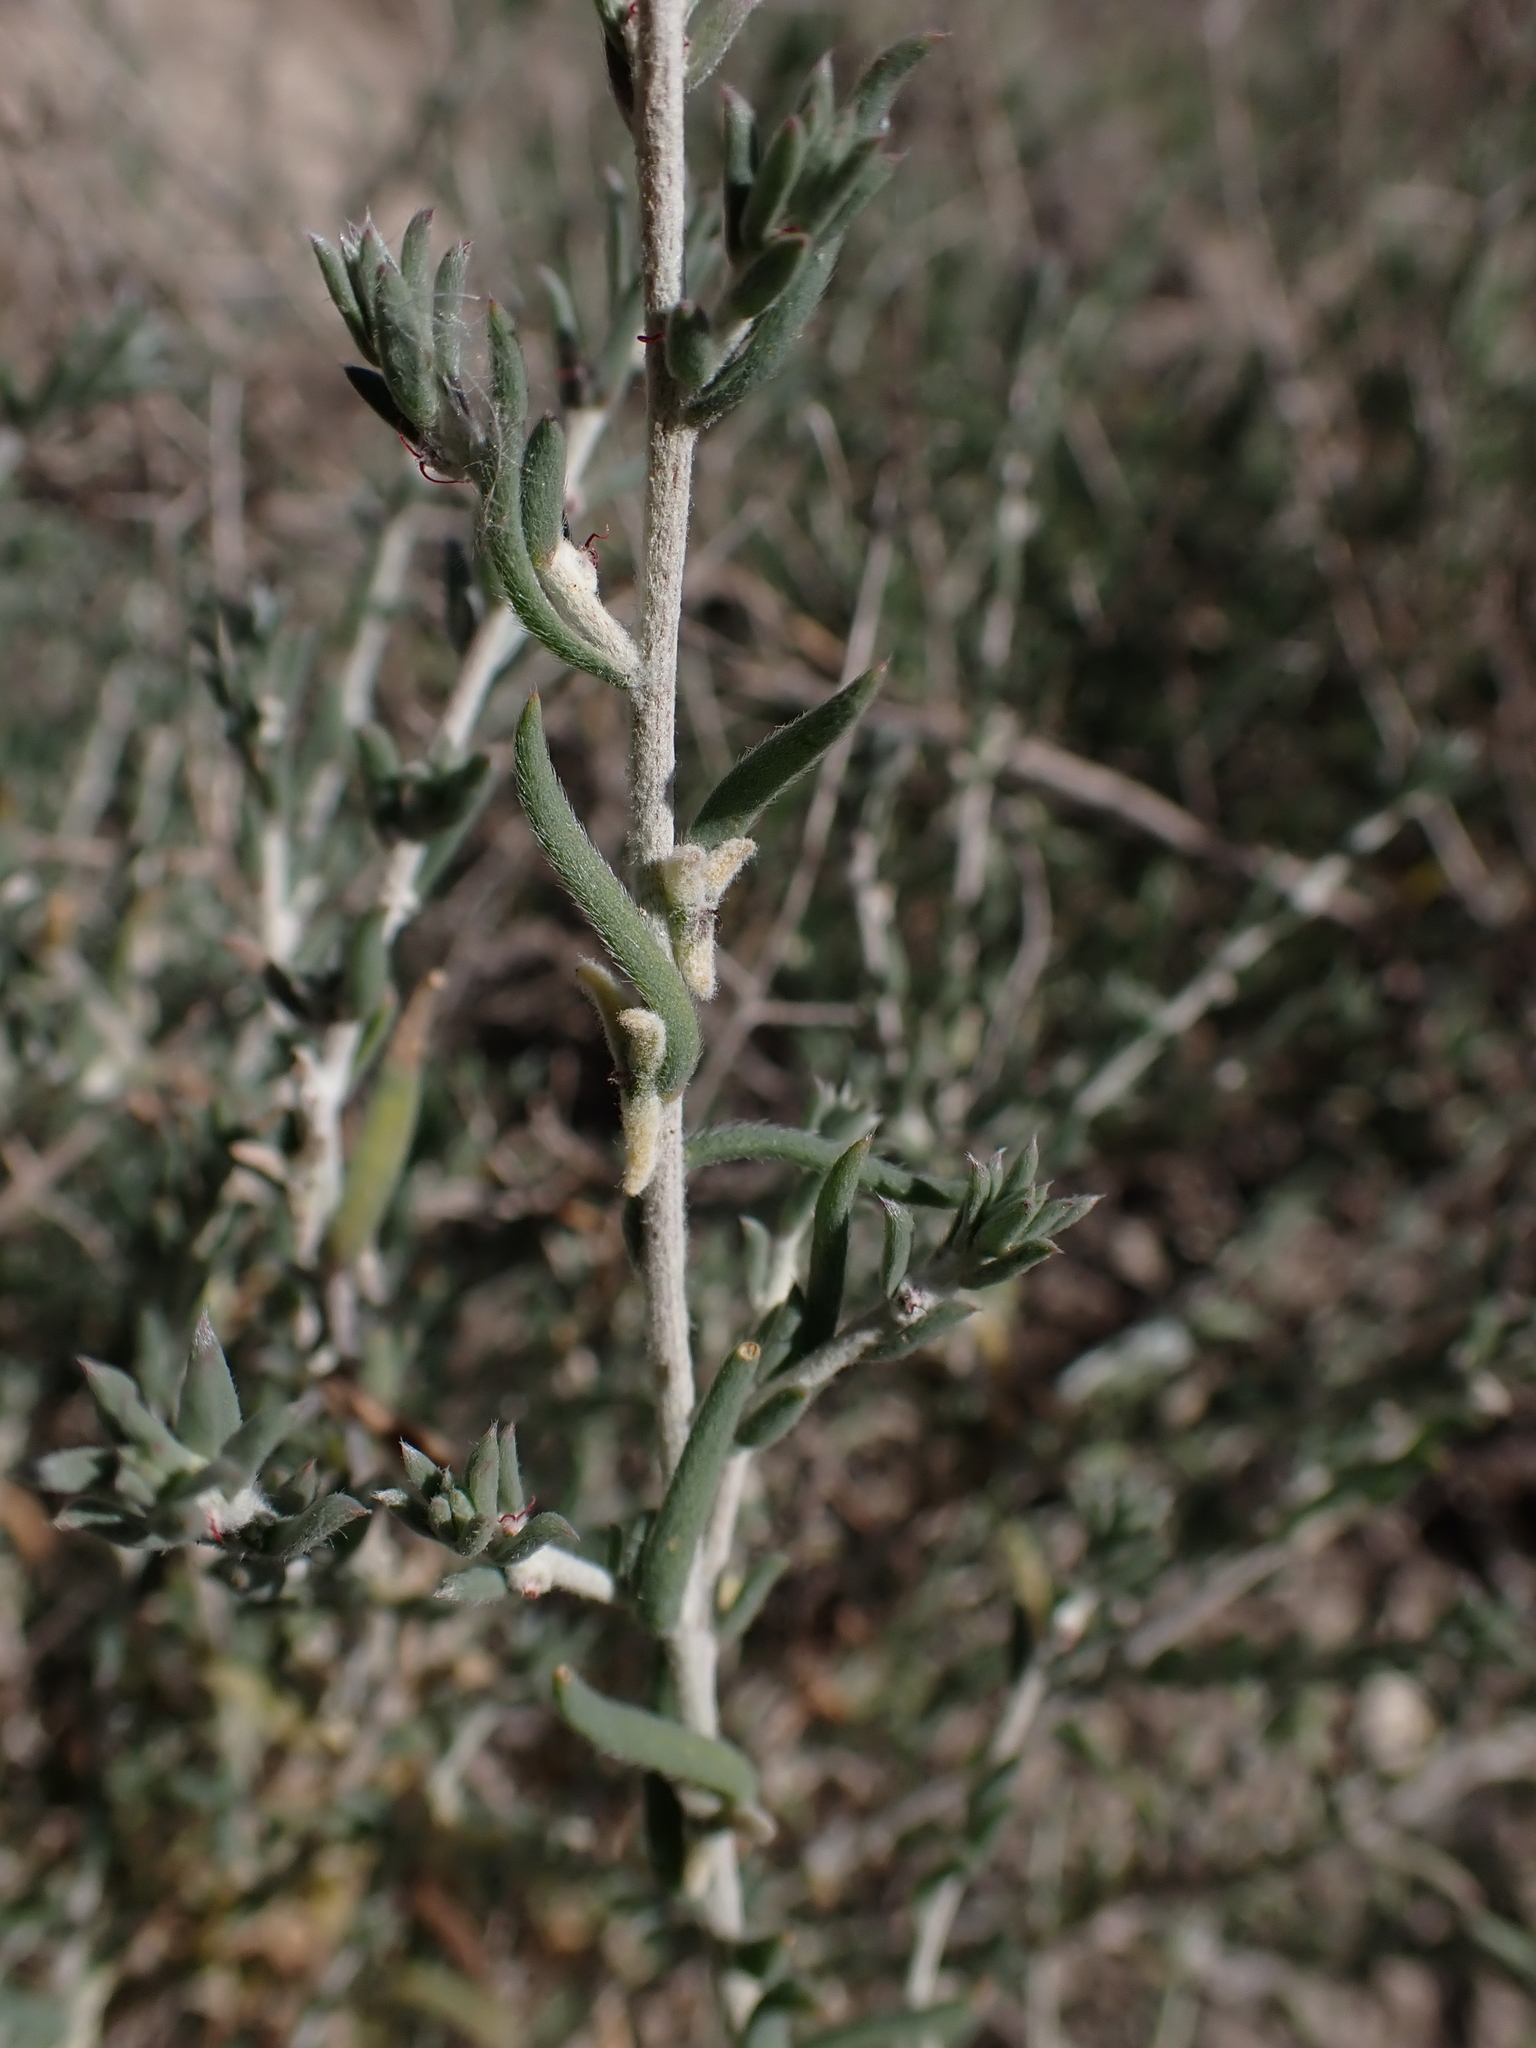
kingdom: Plantae
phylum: Tracheophyta
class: Magnoliopsida
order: Caryophyllales
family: Amaranthaceae
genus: Malacocera
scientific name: Malacocera tricornis
